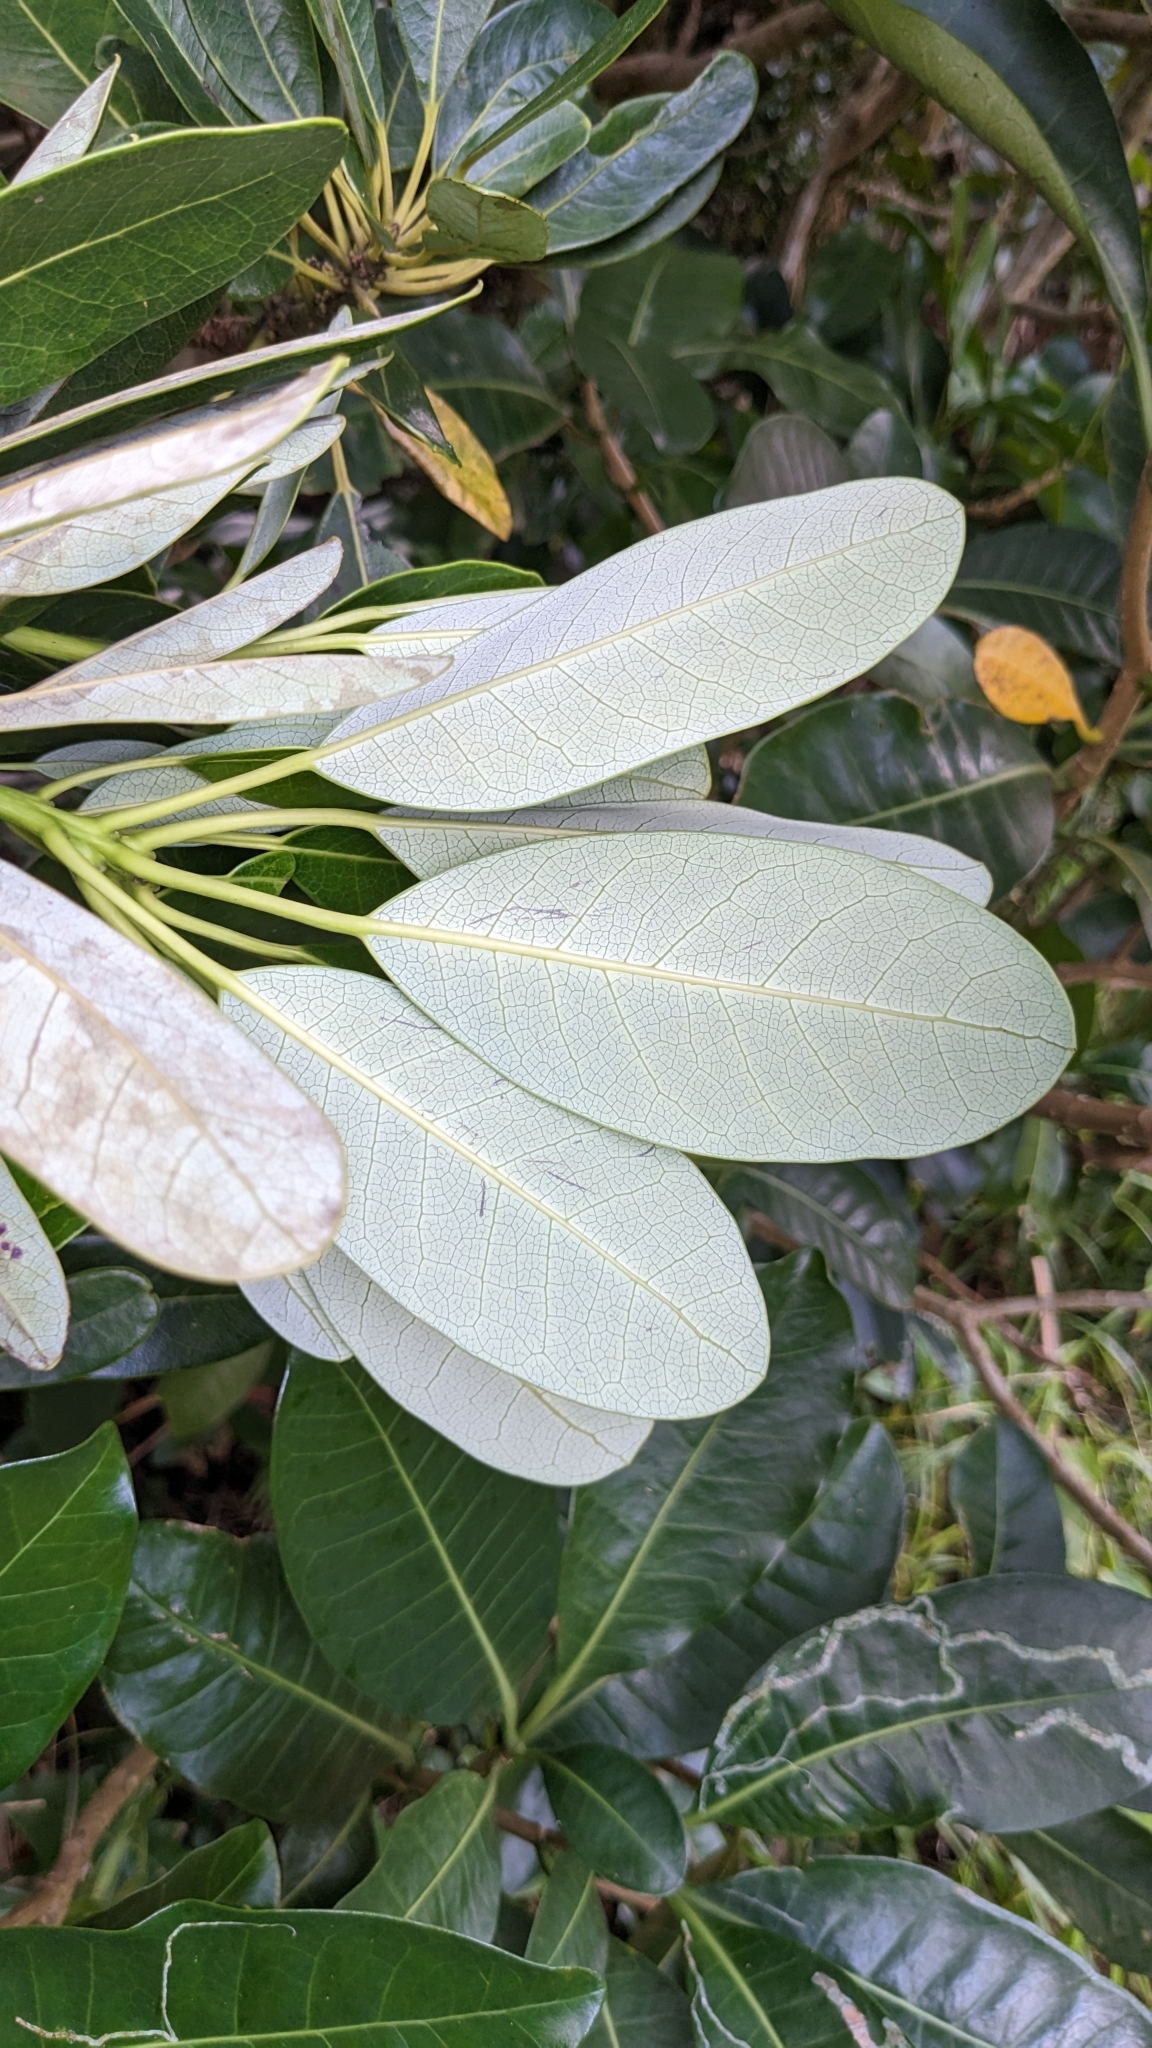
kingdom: Plantae
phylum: Tracheophyta
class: Magnoliopsida
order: Saxifragales
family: Daphniphyllaceae
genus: Daphniphyllum
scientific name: Daphniphyllum glaucescens
